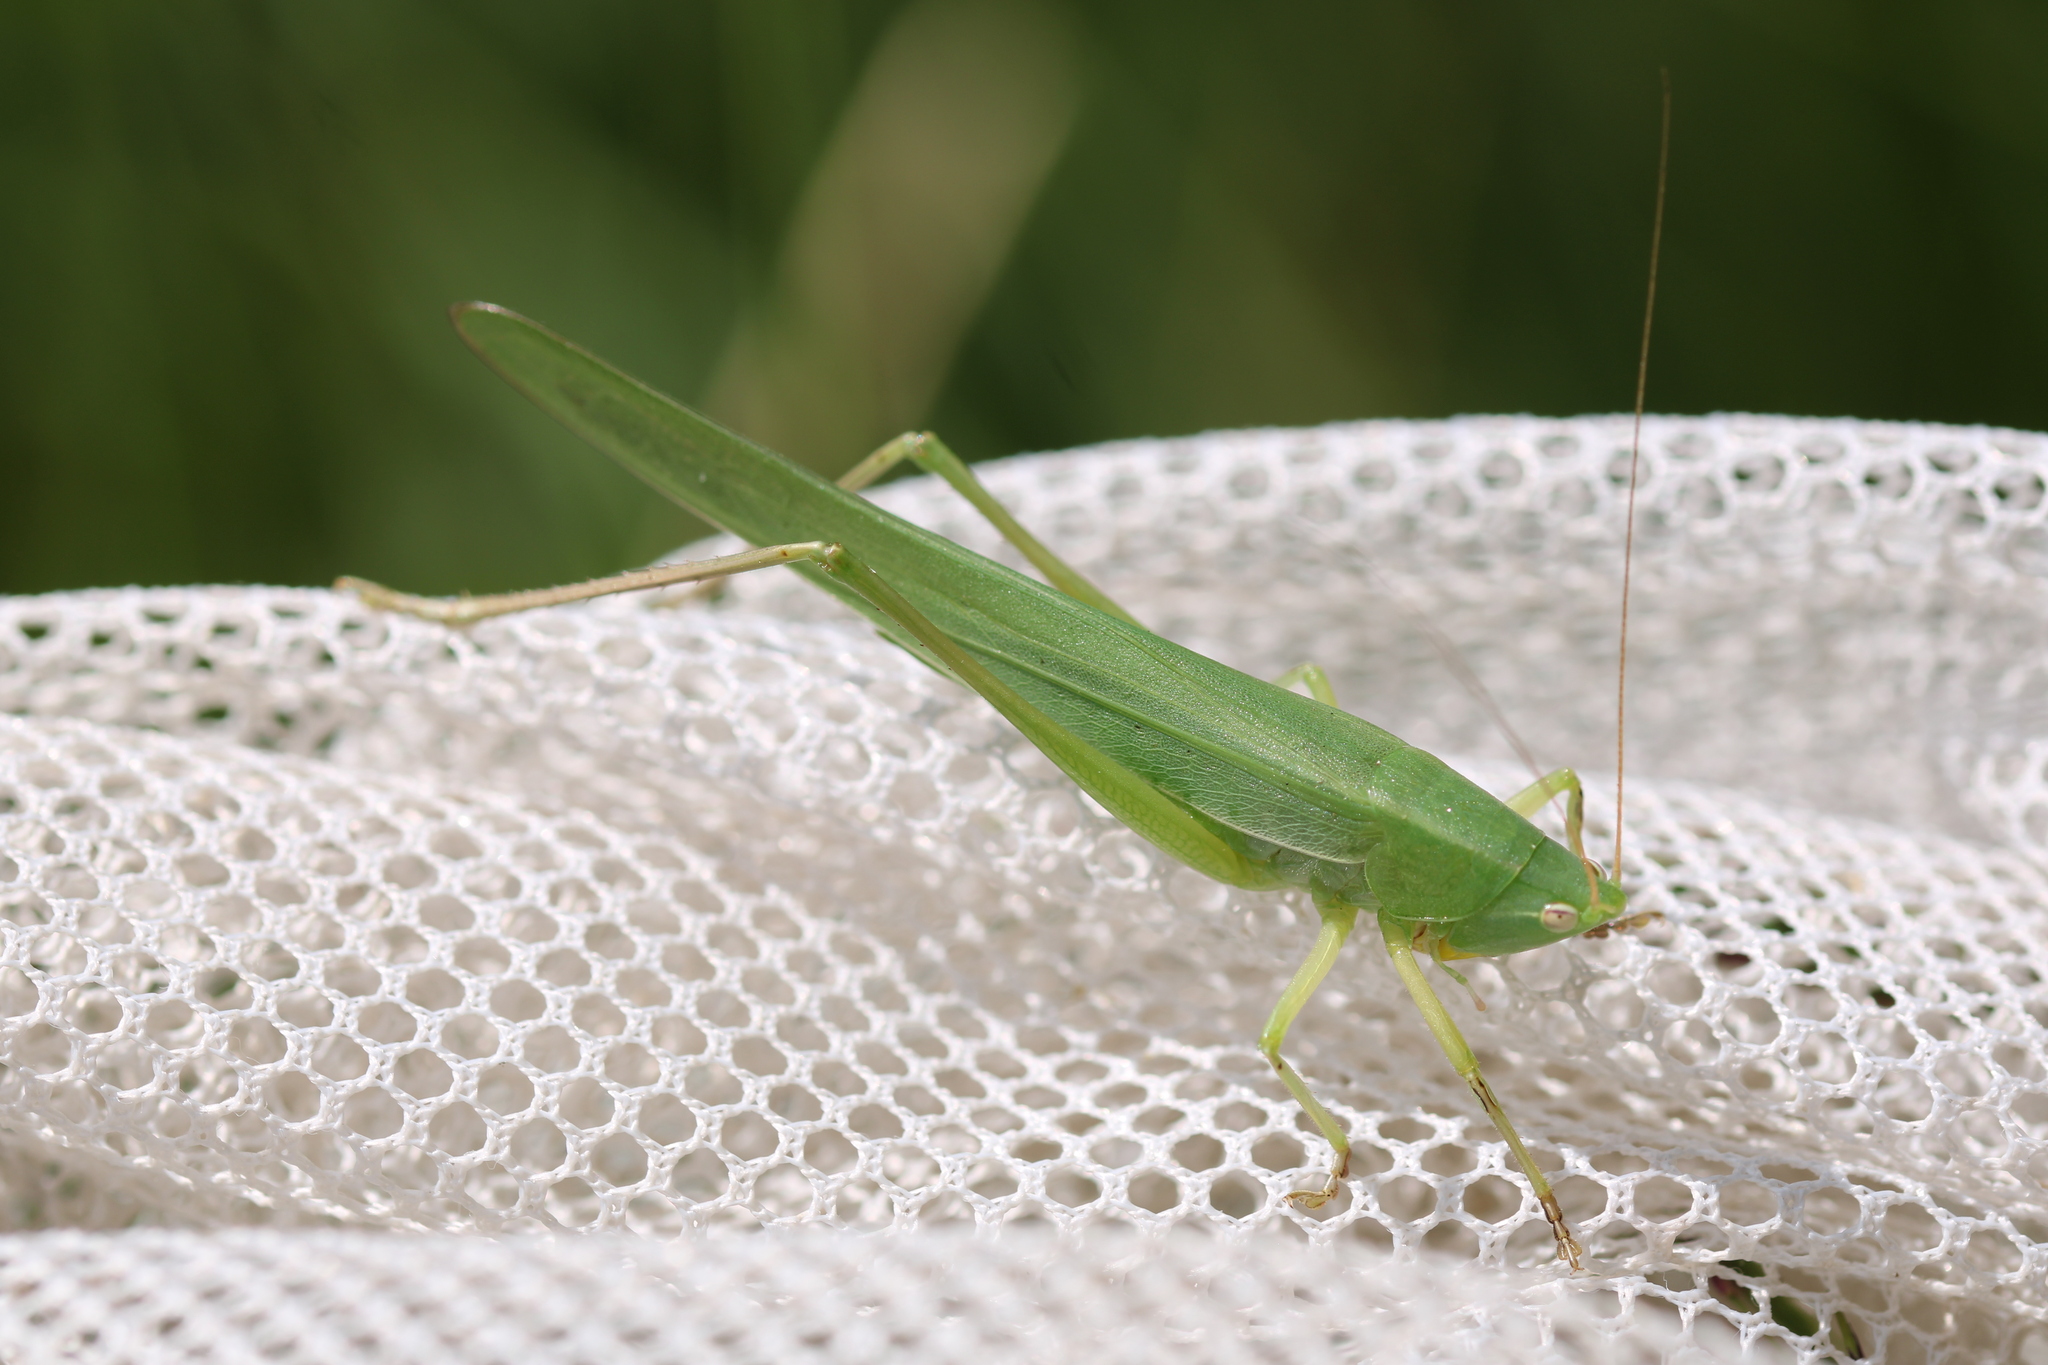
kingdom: Animalia
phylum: Arthropoda
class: Insecta
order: Orthoptera
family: Tettigoniidae
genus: Ruspolia
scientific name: Ruspolia nitidula
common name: Large conehead
